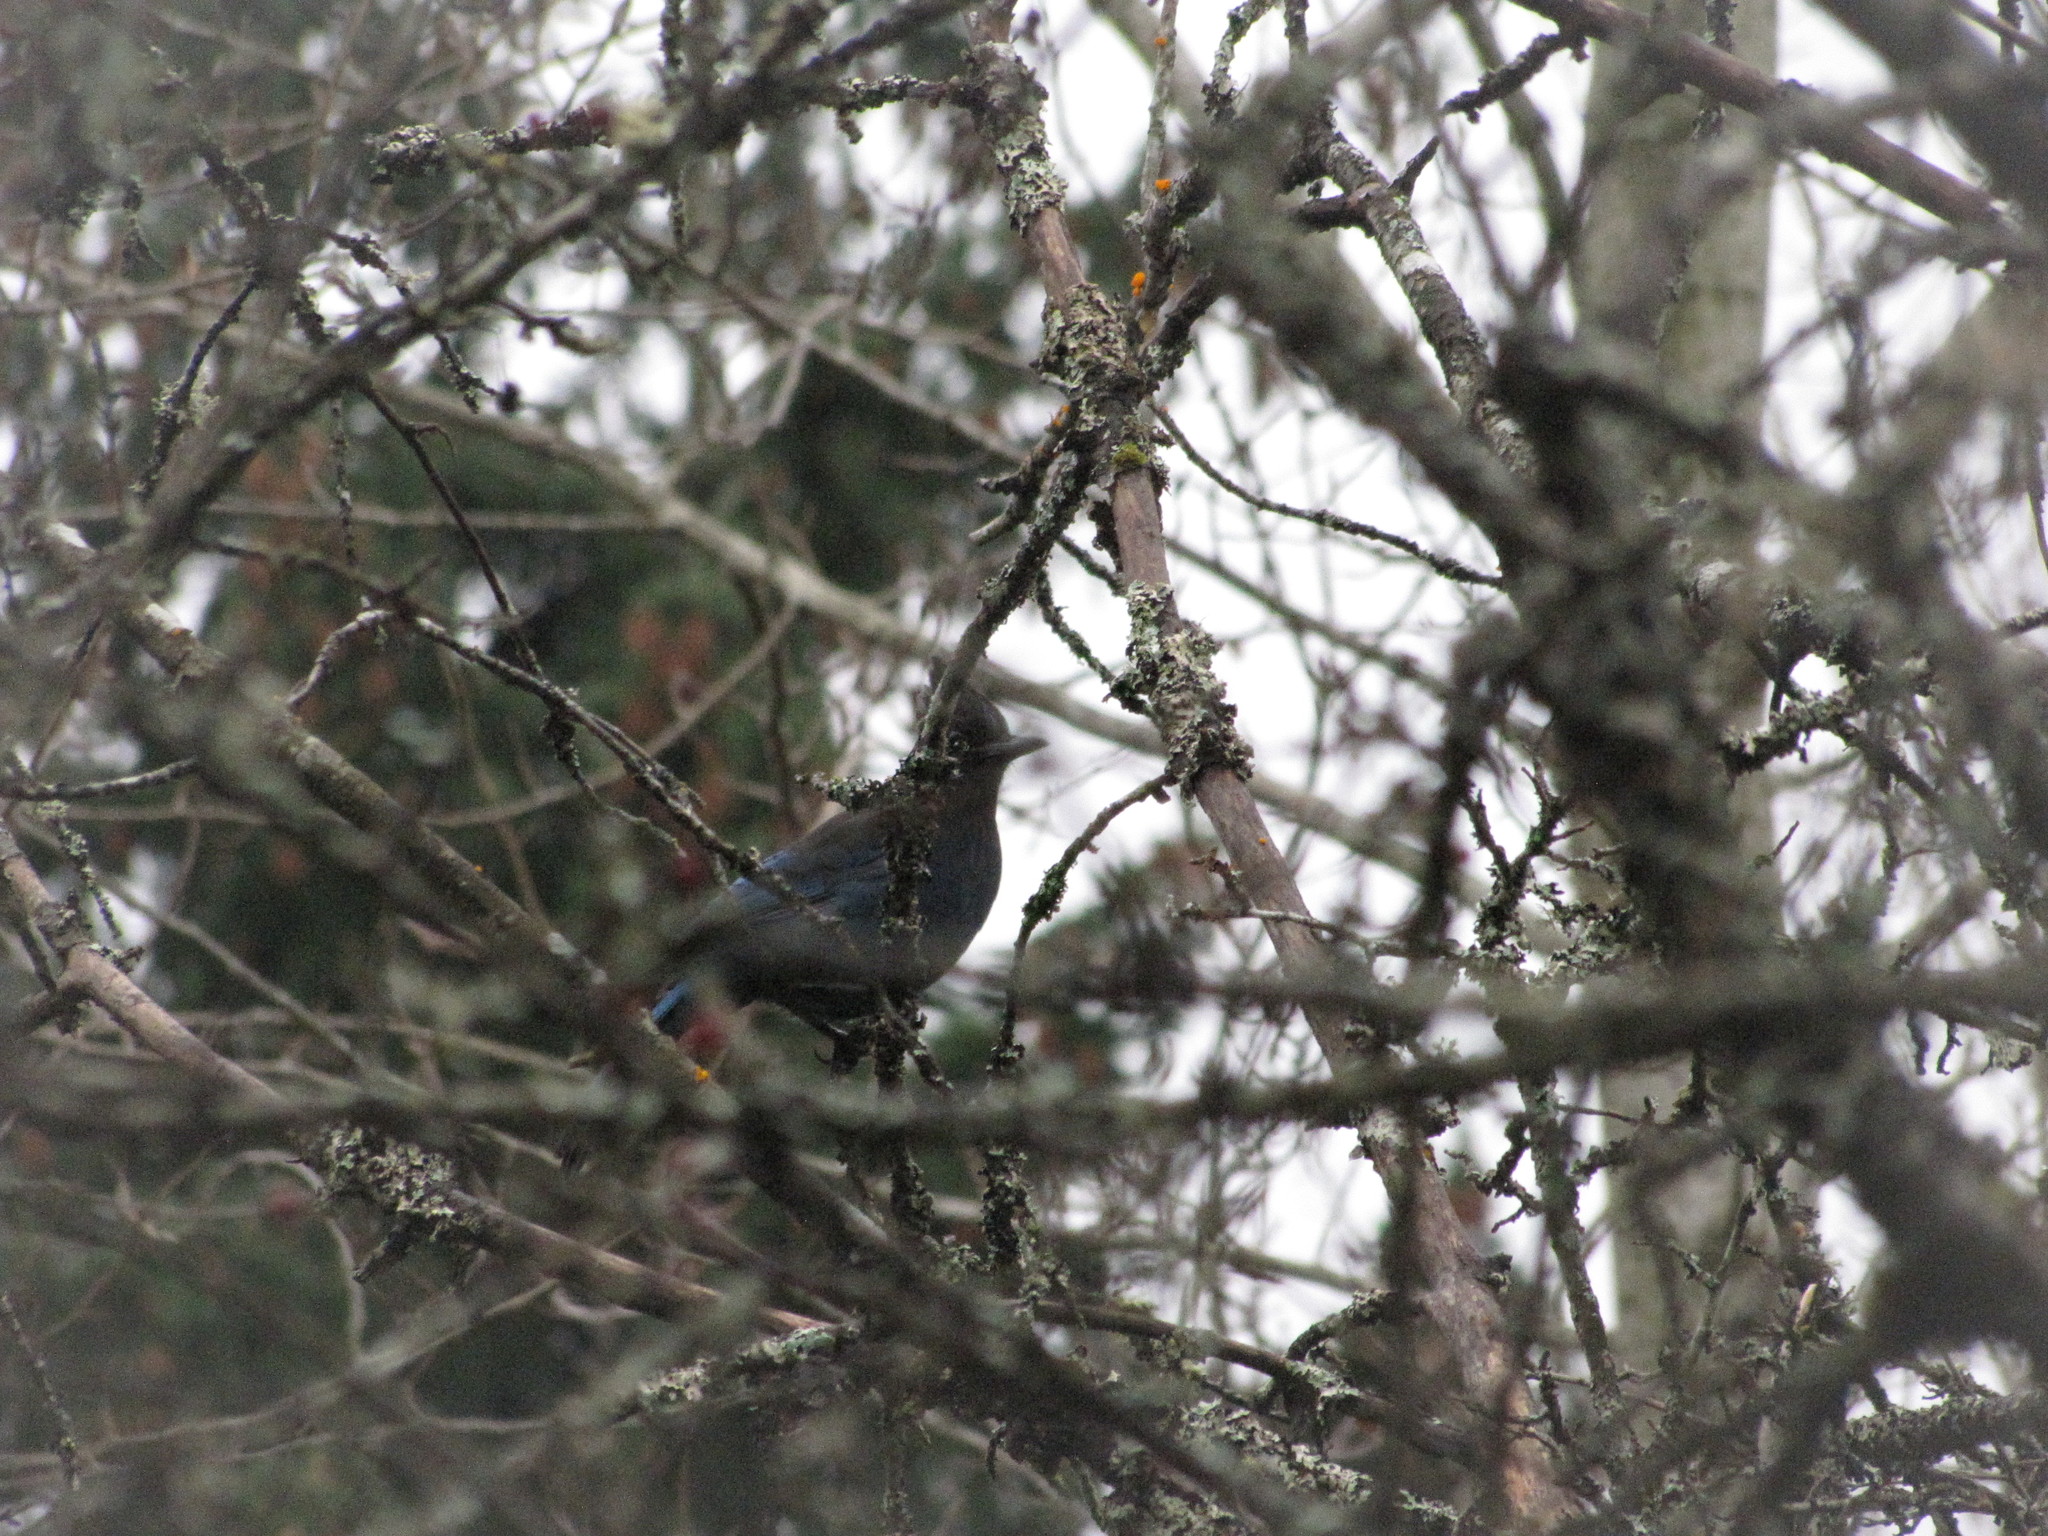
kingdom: Animalia
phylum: Chordata
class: Aves
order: Passeriformes
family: Corvidae
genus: Cyanocitta
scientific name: Cyanocitta stelleri
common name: Steller's jay
